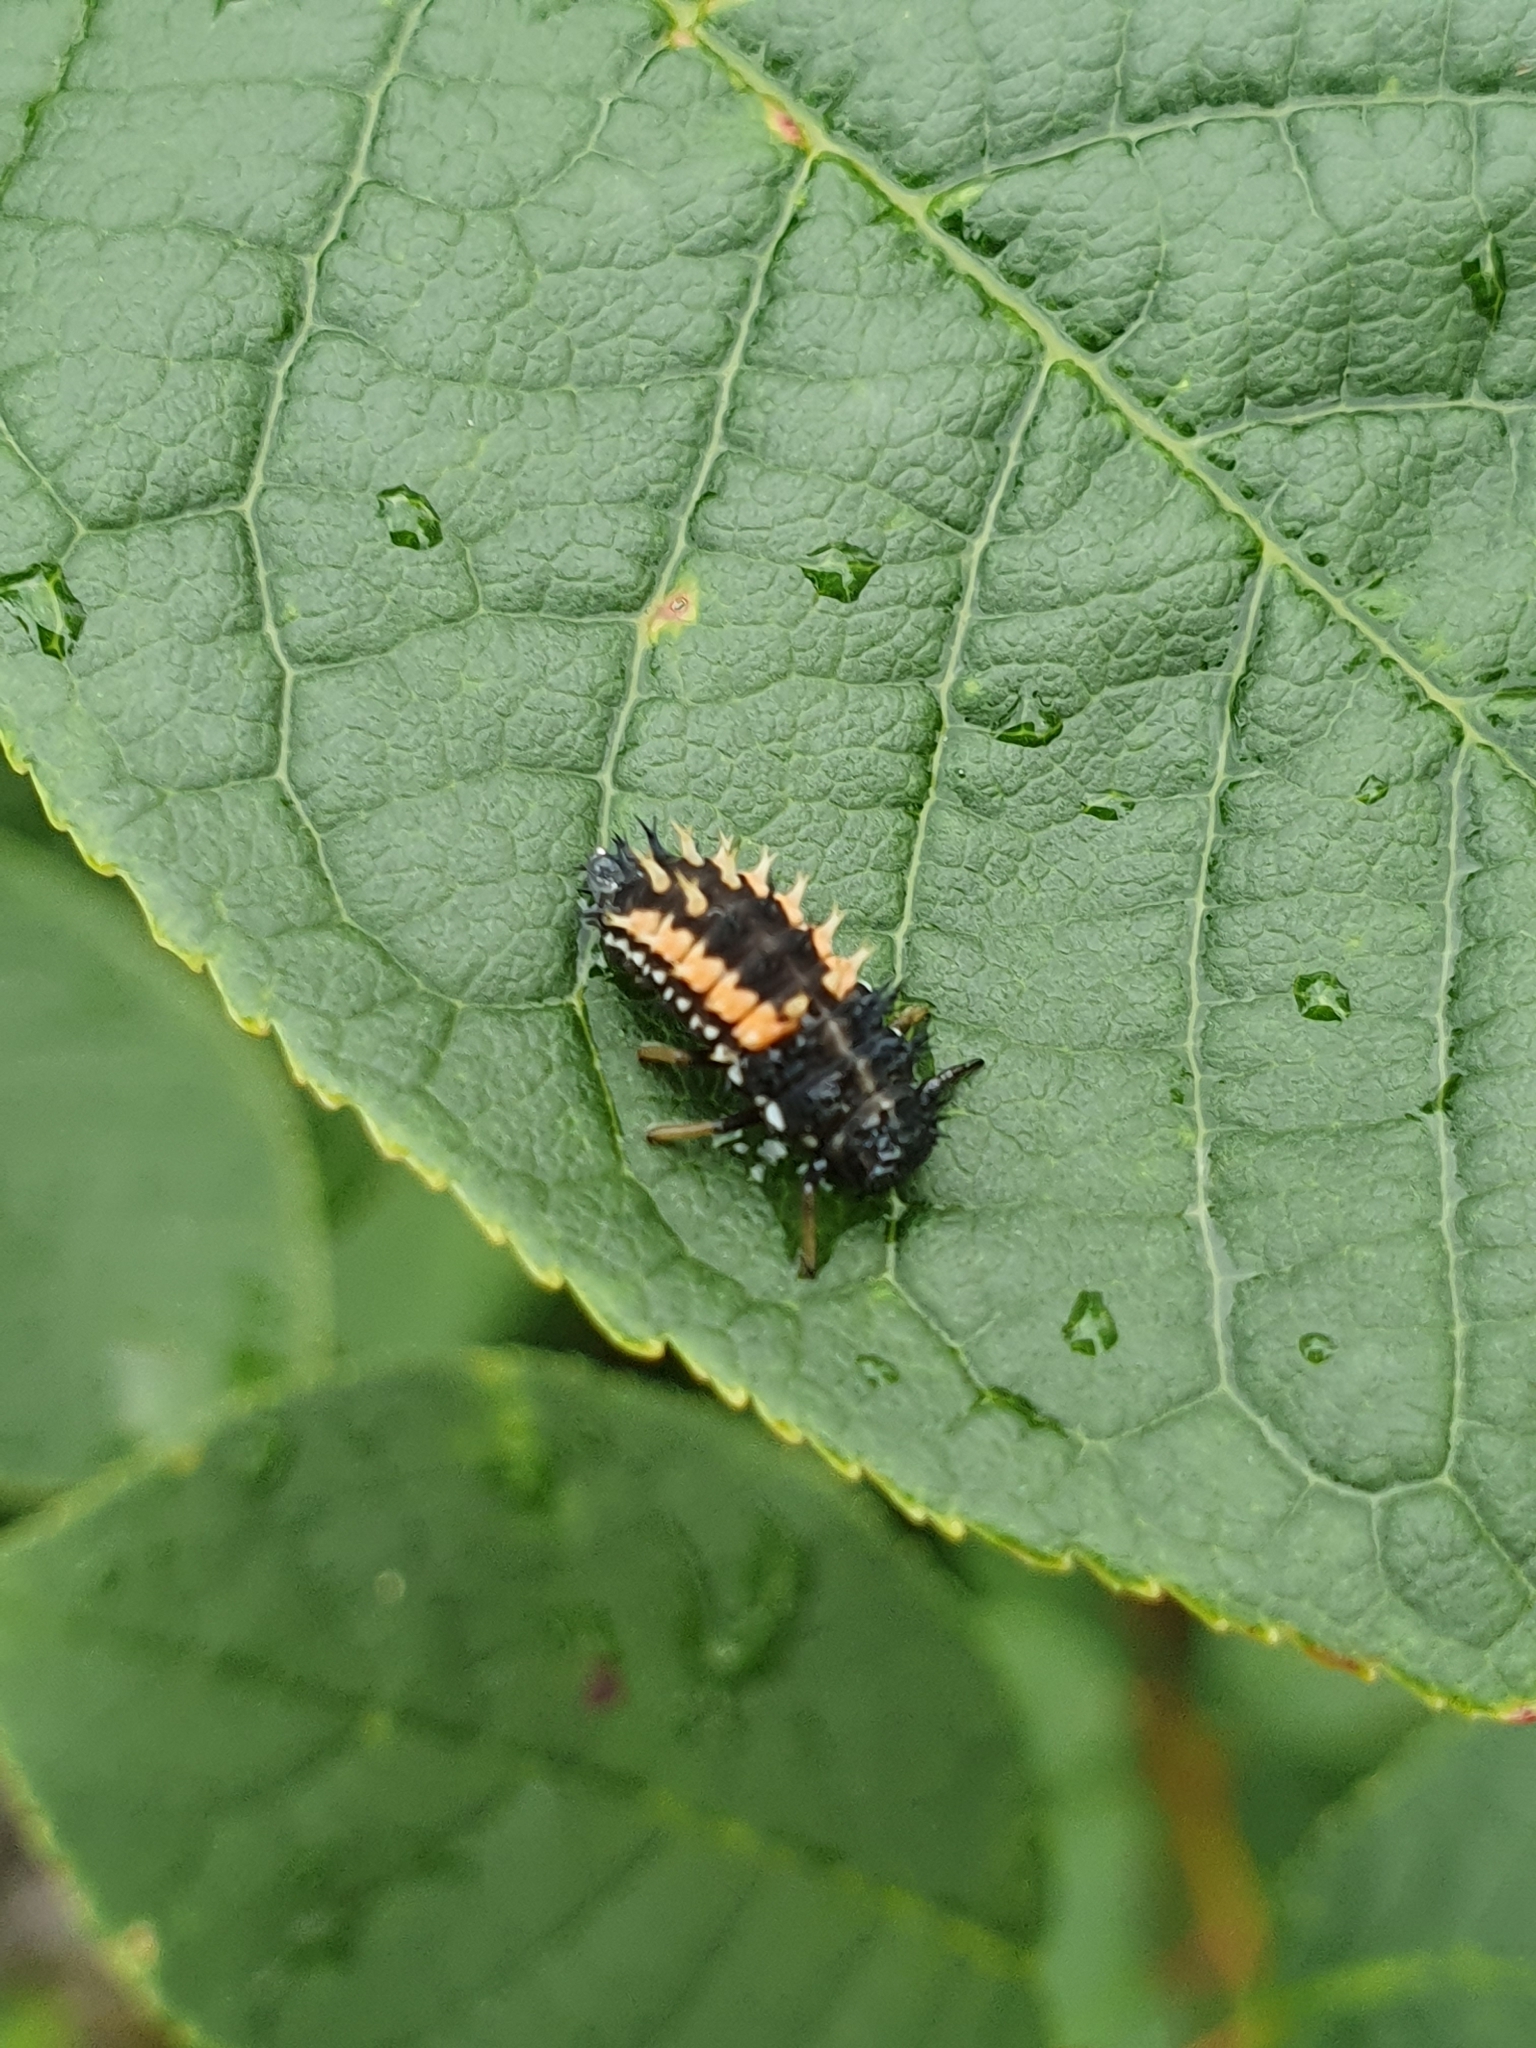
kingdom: Animalia
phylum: Arthropoda
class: Insecta
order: Coleoptera
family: Coccinellidae
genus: Harmonia
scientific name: Harmonia axyridis
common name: Harlequin ladybird
